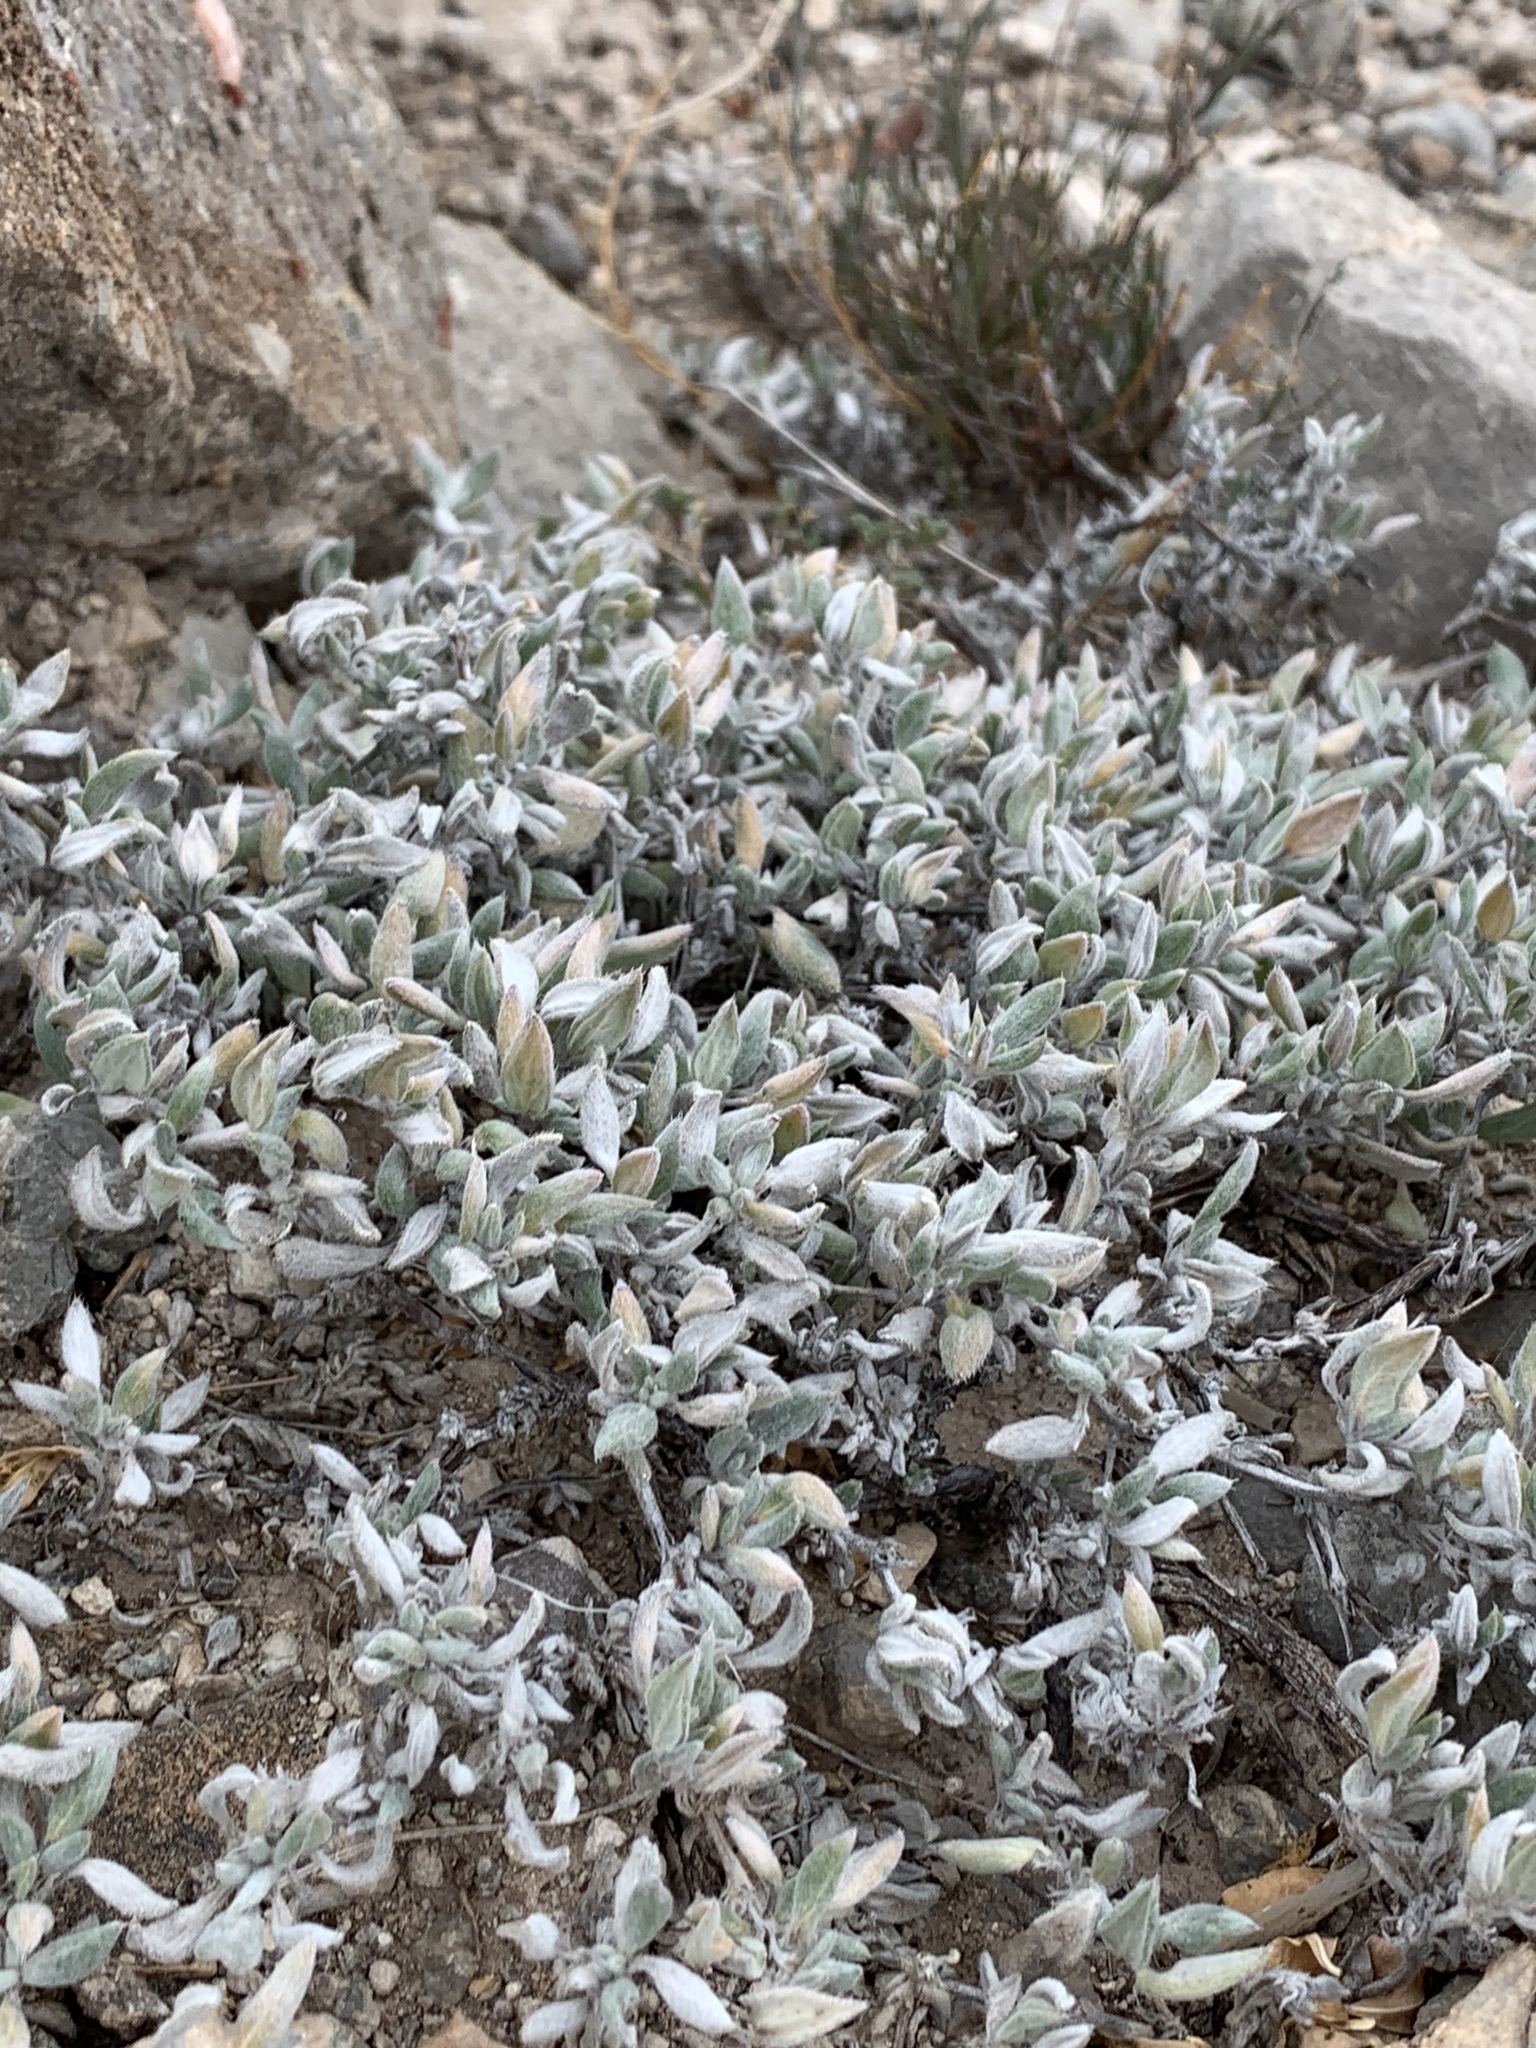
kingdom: Plantae
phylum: Tracheophyta
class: Magnoliopsida
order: Boraginales
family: Ehretiaceae
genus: Tiquilia
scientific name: Tiquilia canescens
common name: Hairy tiquilia
